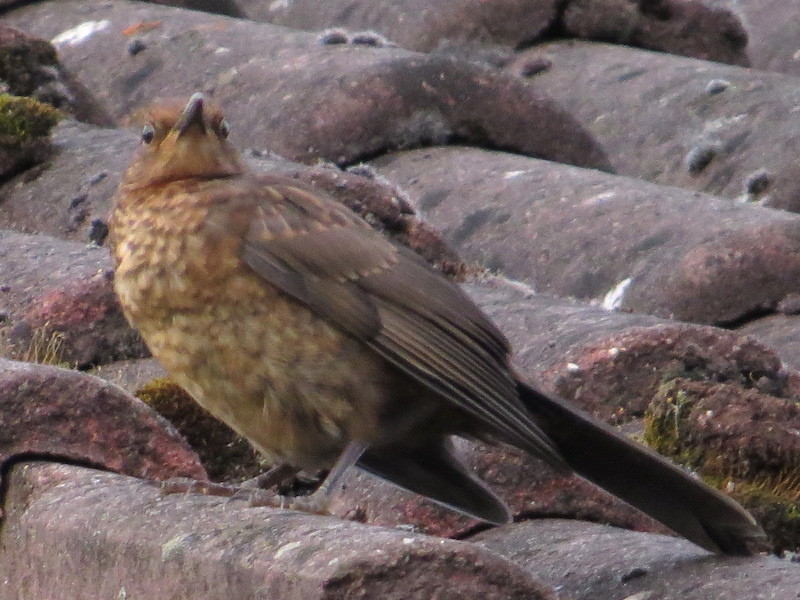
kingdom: Animalia
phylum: Chordata
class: Aves
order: Passeriformes
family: Turdidae
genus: Turdus
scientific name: Turdus merula
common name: Common blackbird
